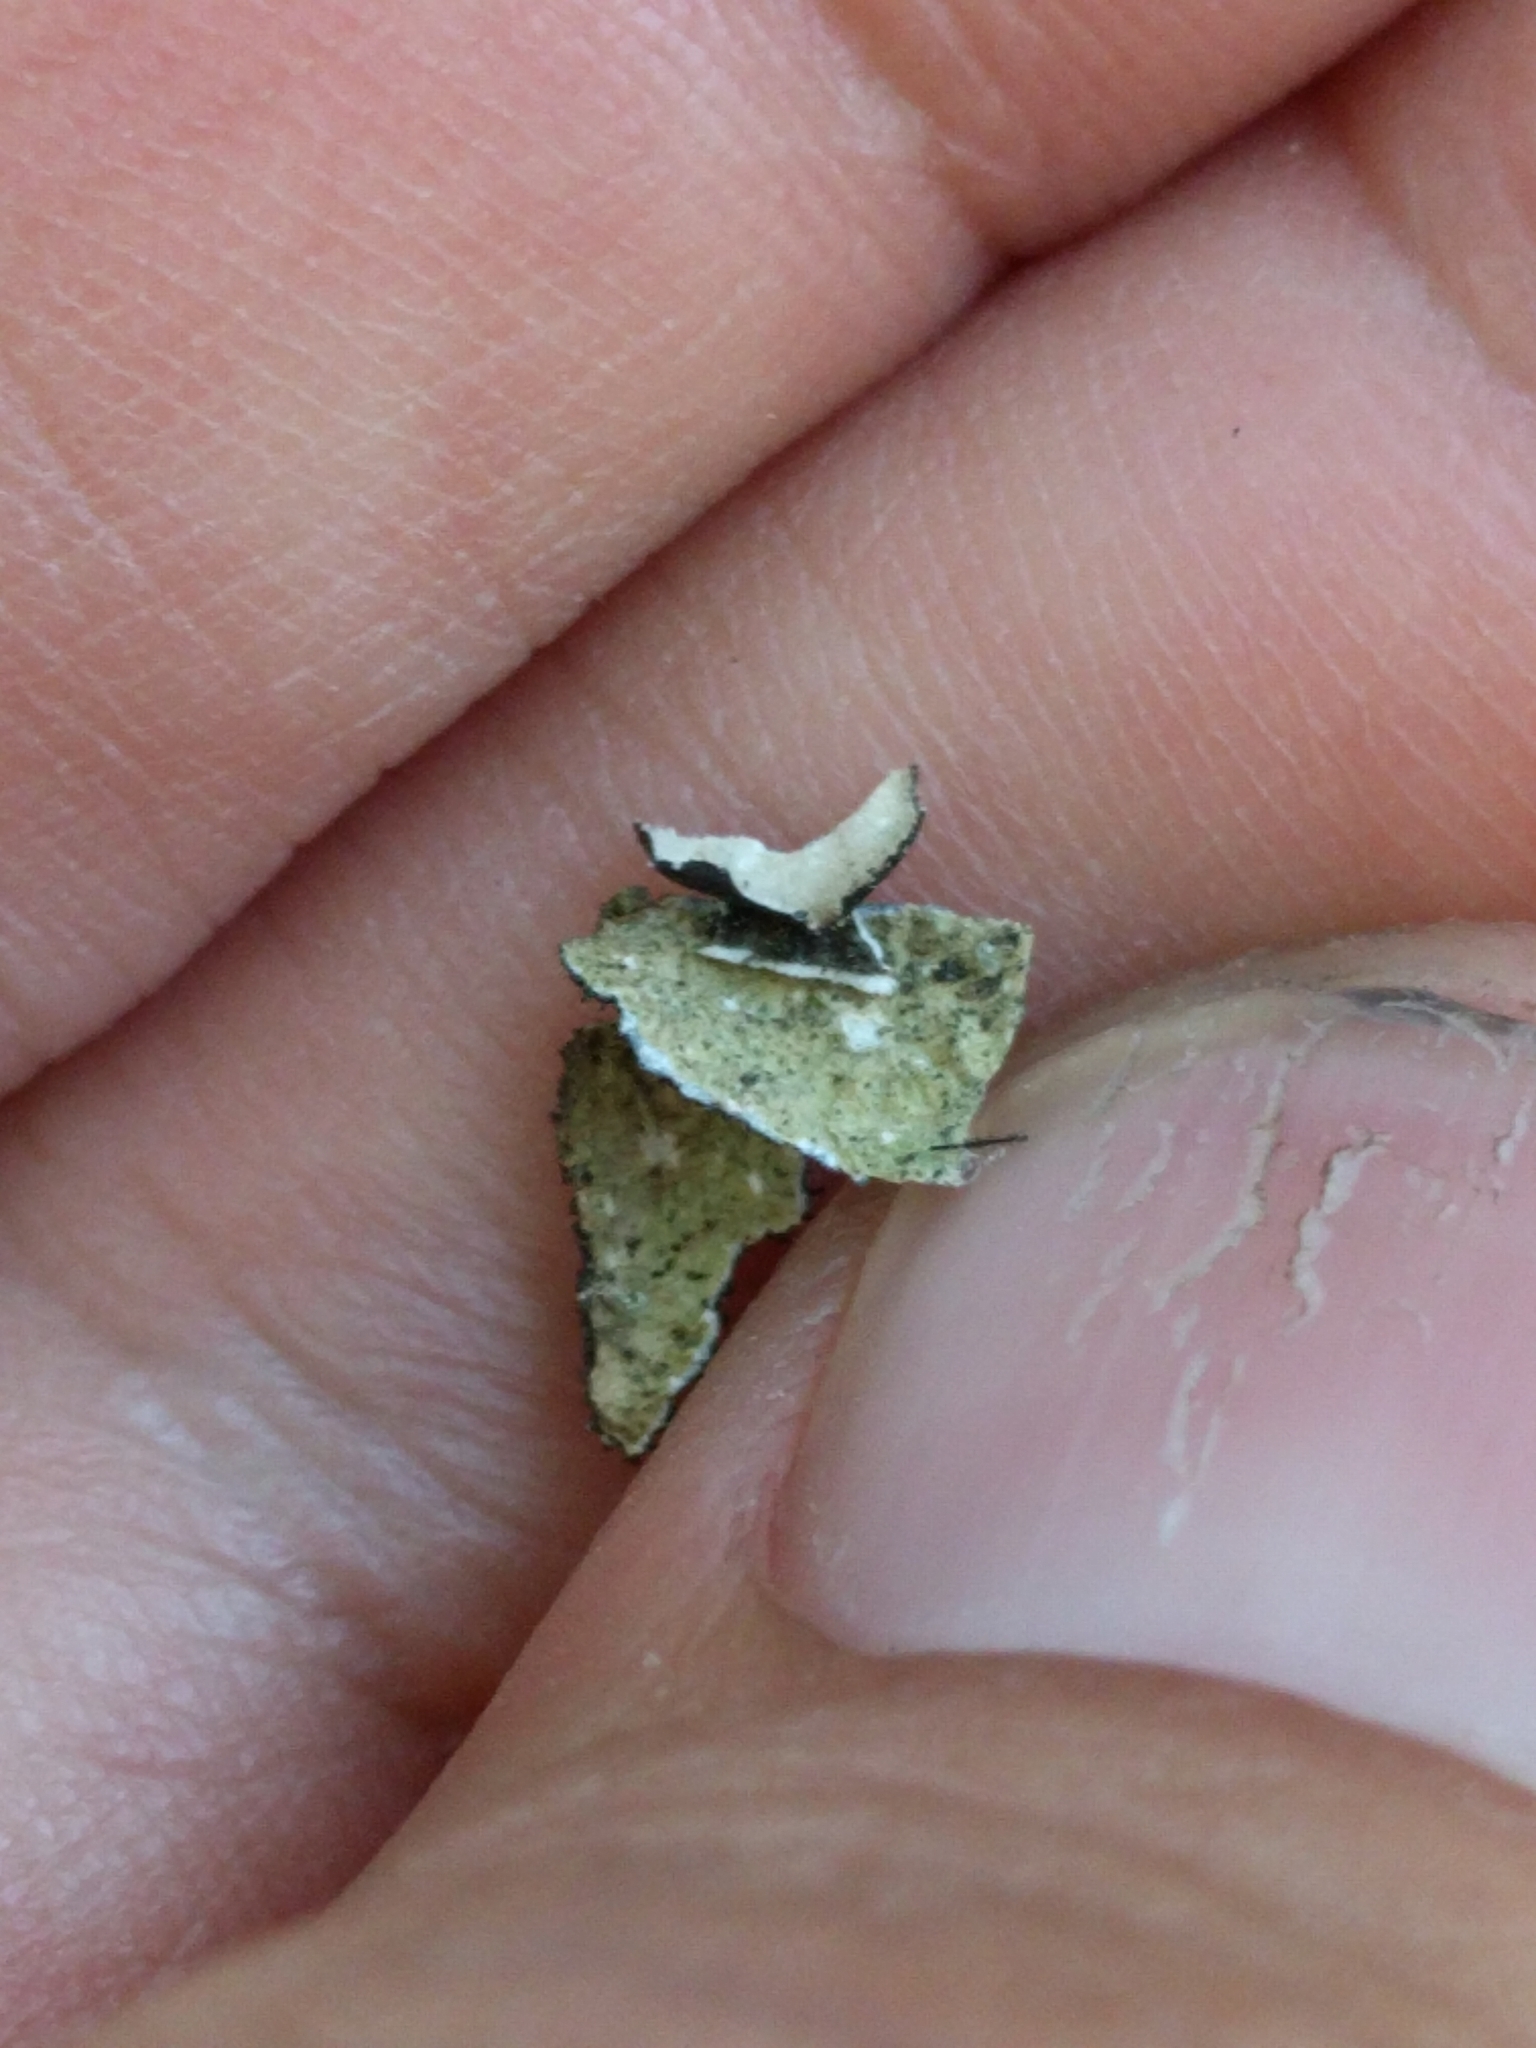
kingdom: Fungi
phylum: Ascomycota
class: Lecanoromycetes
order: Peltigerales
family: Lobariaceae
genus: Sticta
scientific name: Sticta fuliginosa
